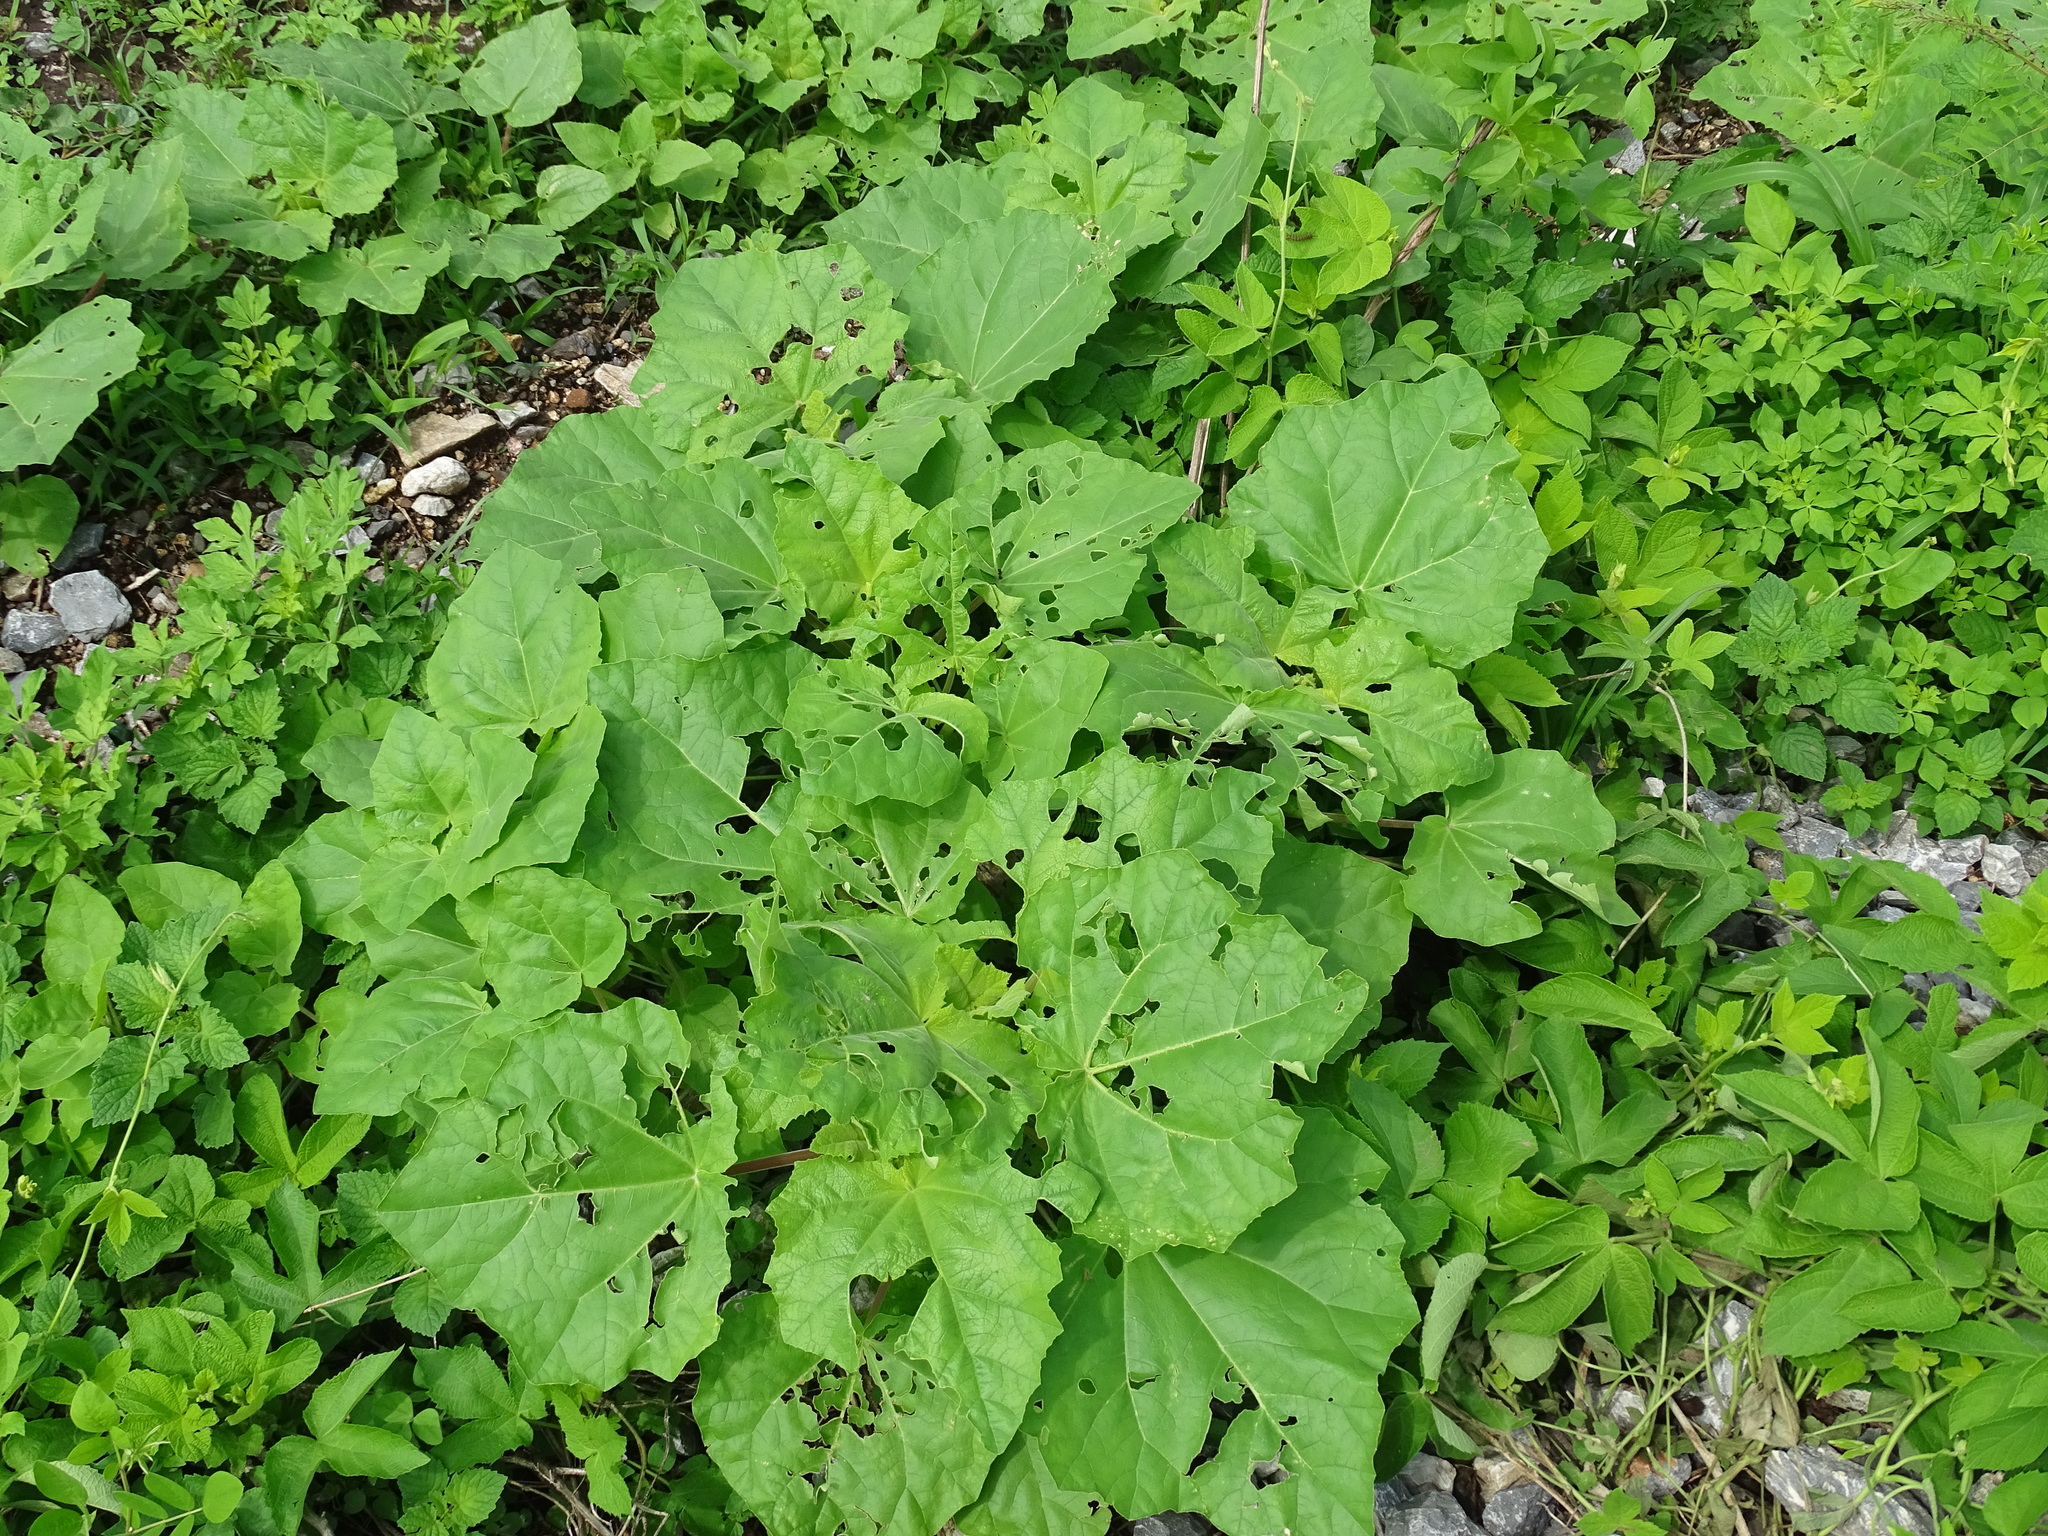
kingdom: Plantae
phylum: Tracheophyta
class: Magnoliopsida
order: Lamiales
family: Martyniaceae
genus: Martynia
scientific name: Martynia annua
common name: Tiger's-claw
